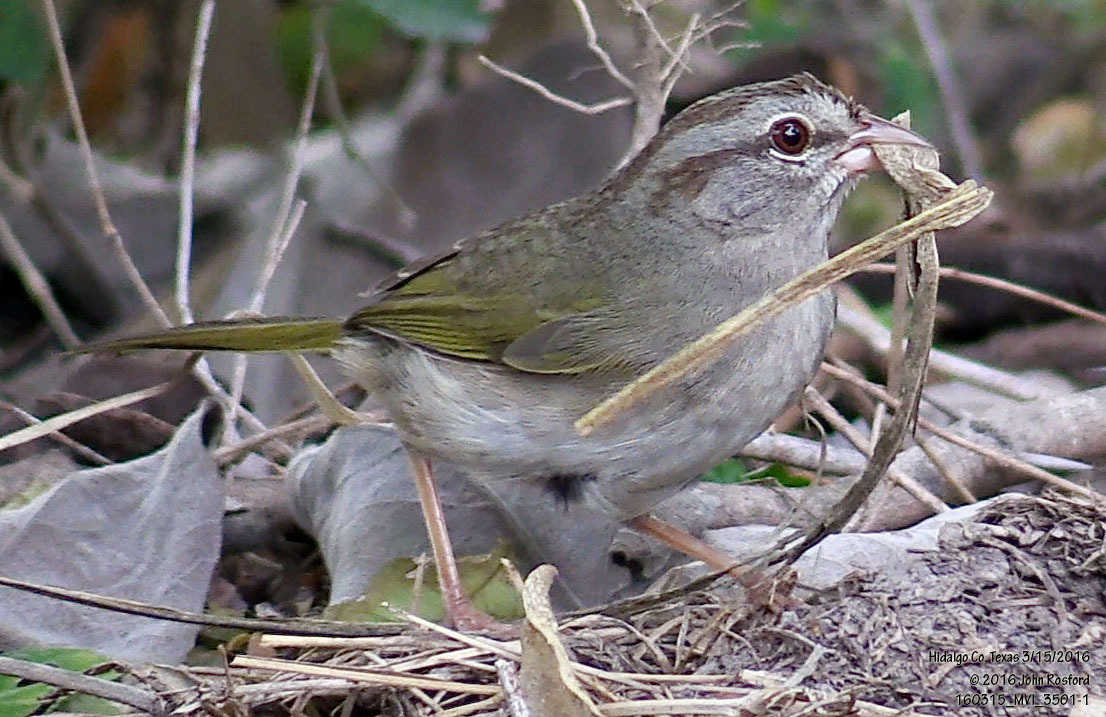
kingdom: Animalia
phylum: Chordata
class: Aves
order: Passeriformes
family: Passerellidae
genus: Arremonops
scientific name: Arremonops rufivirgatus
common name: Olive sparrow
